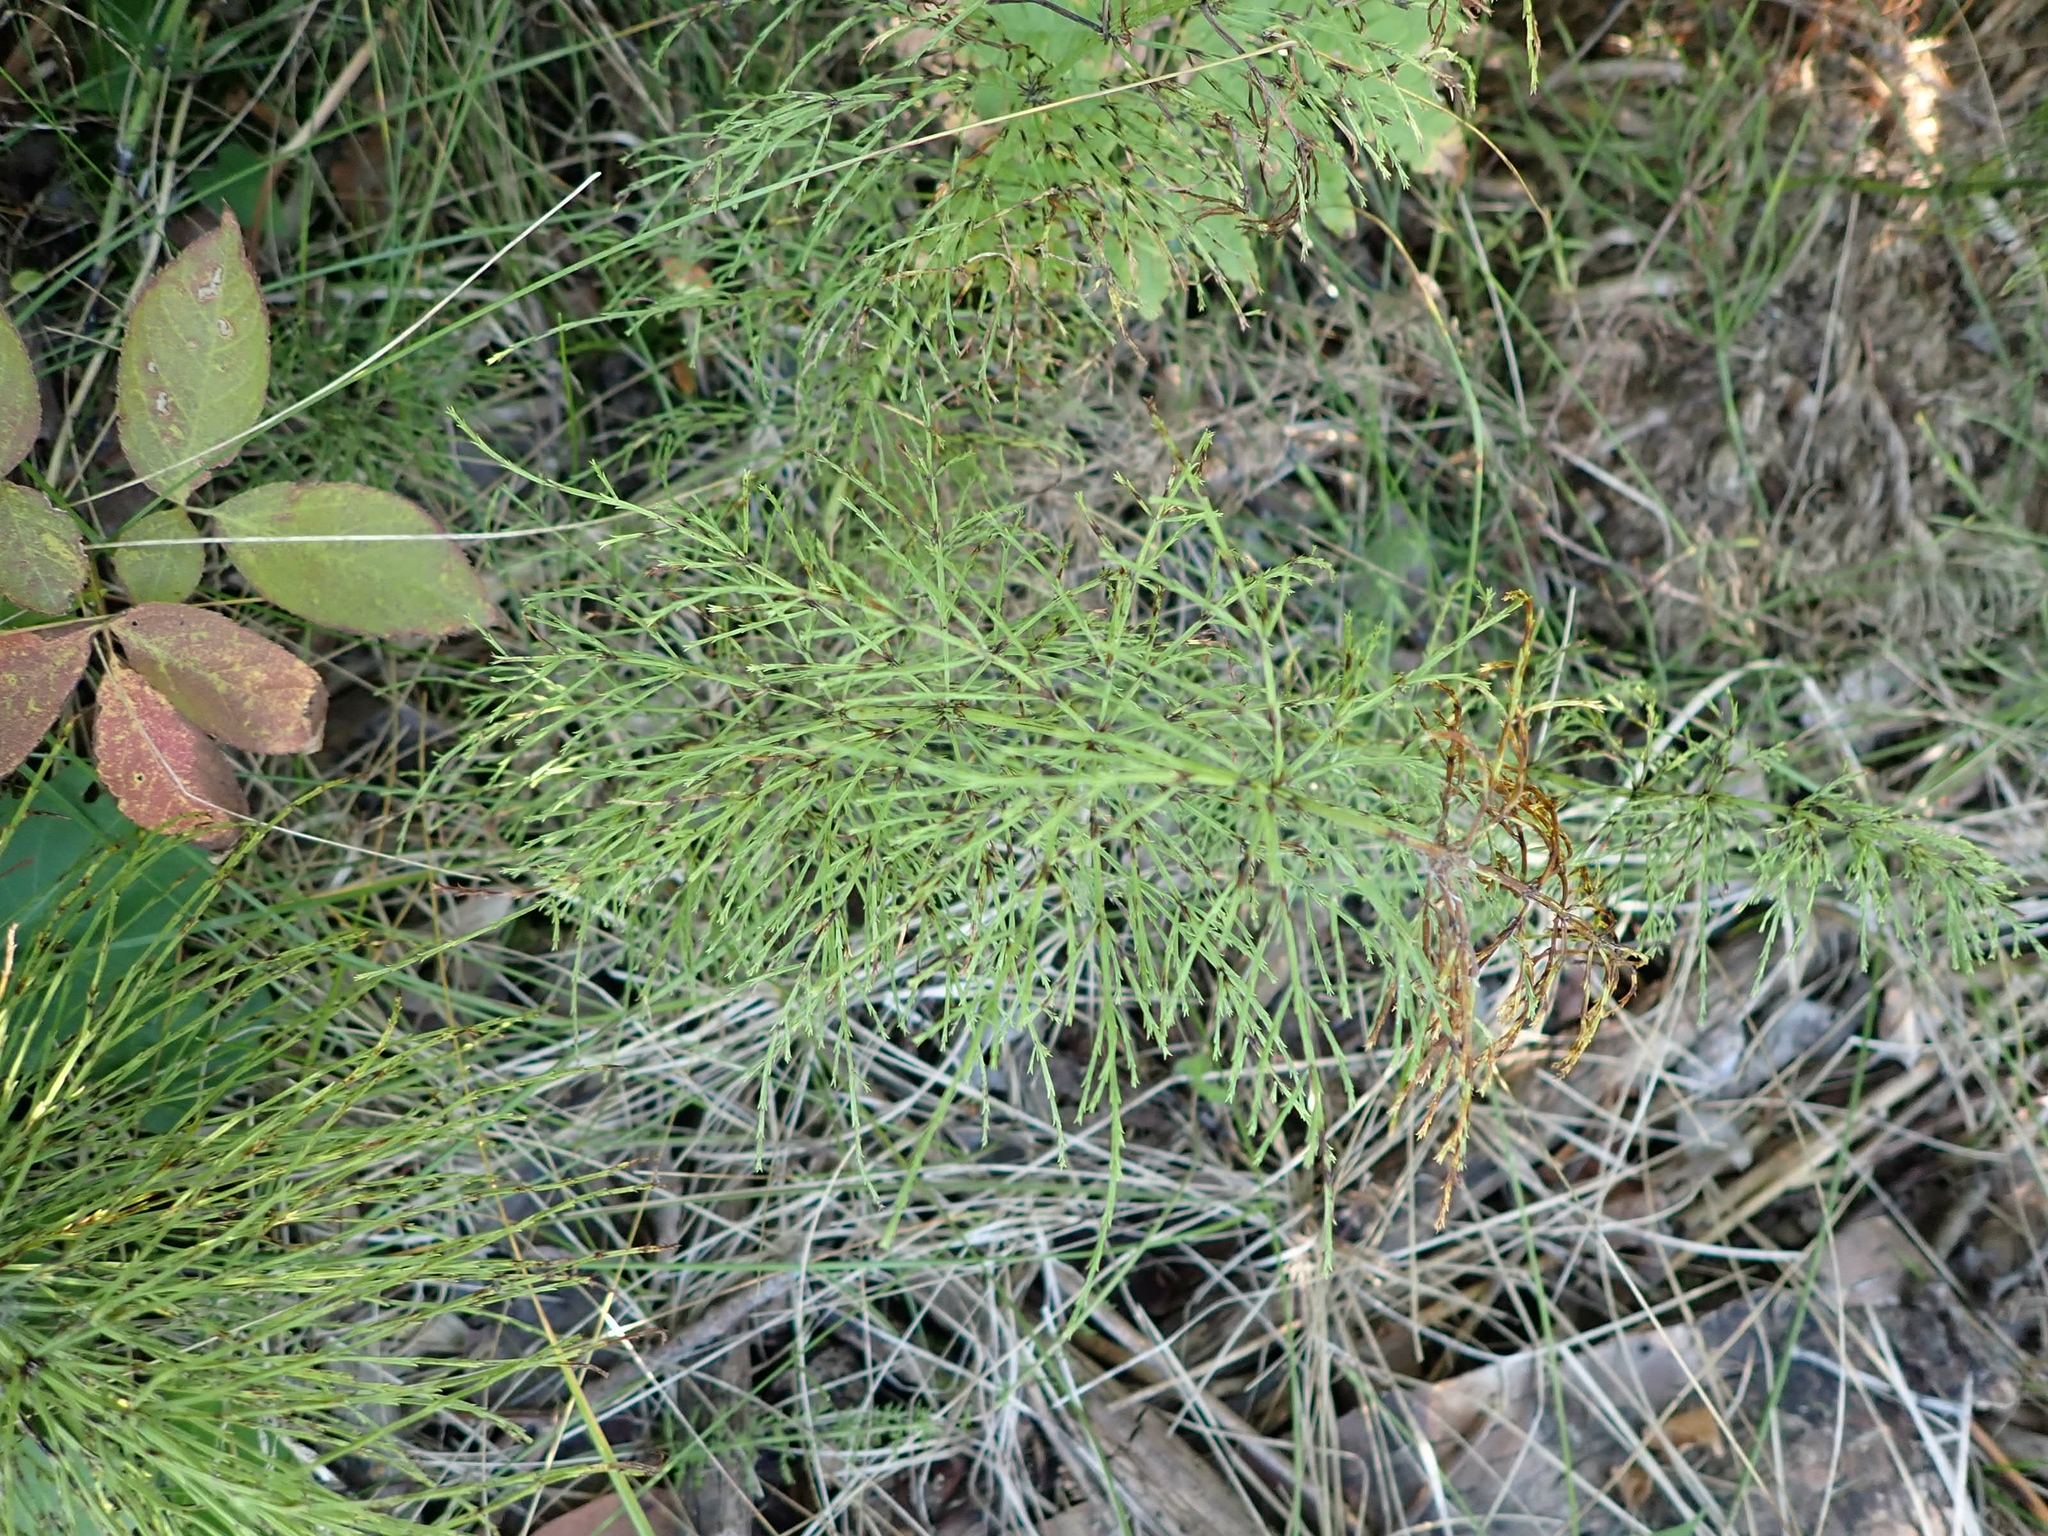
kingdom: Plantae
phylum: Tracheophyta
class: Polypodiopsida
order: Equisetales
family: Equisetaceae
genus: Equisetum
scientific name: Equisetum sylvaticum
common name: Wood horsetail
